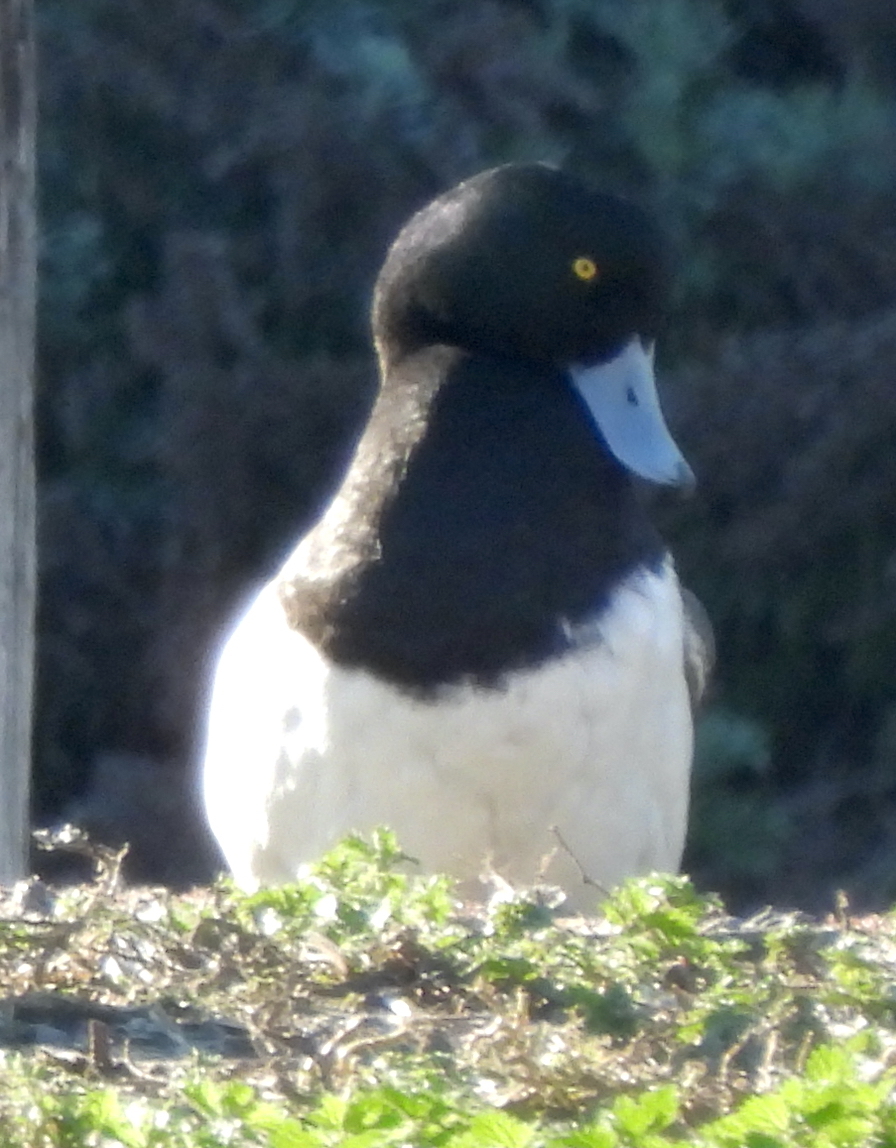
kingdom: Animalia
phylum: Chordata
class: Aves
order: Anseriformes
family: Anatidae
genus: Aythya
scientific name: Aythya affinis
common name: Lesser scaup
